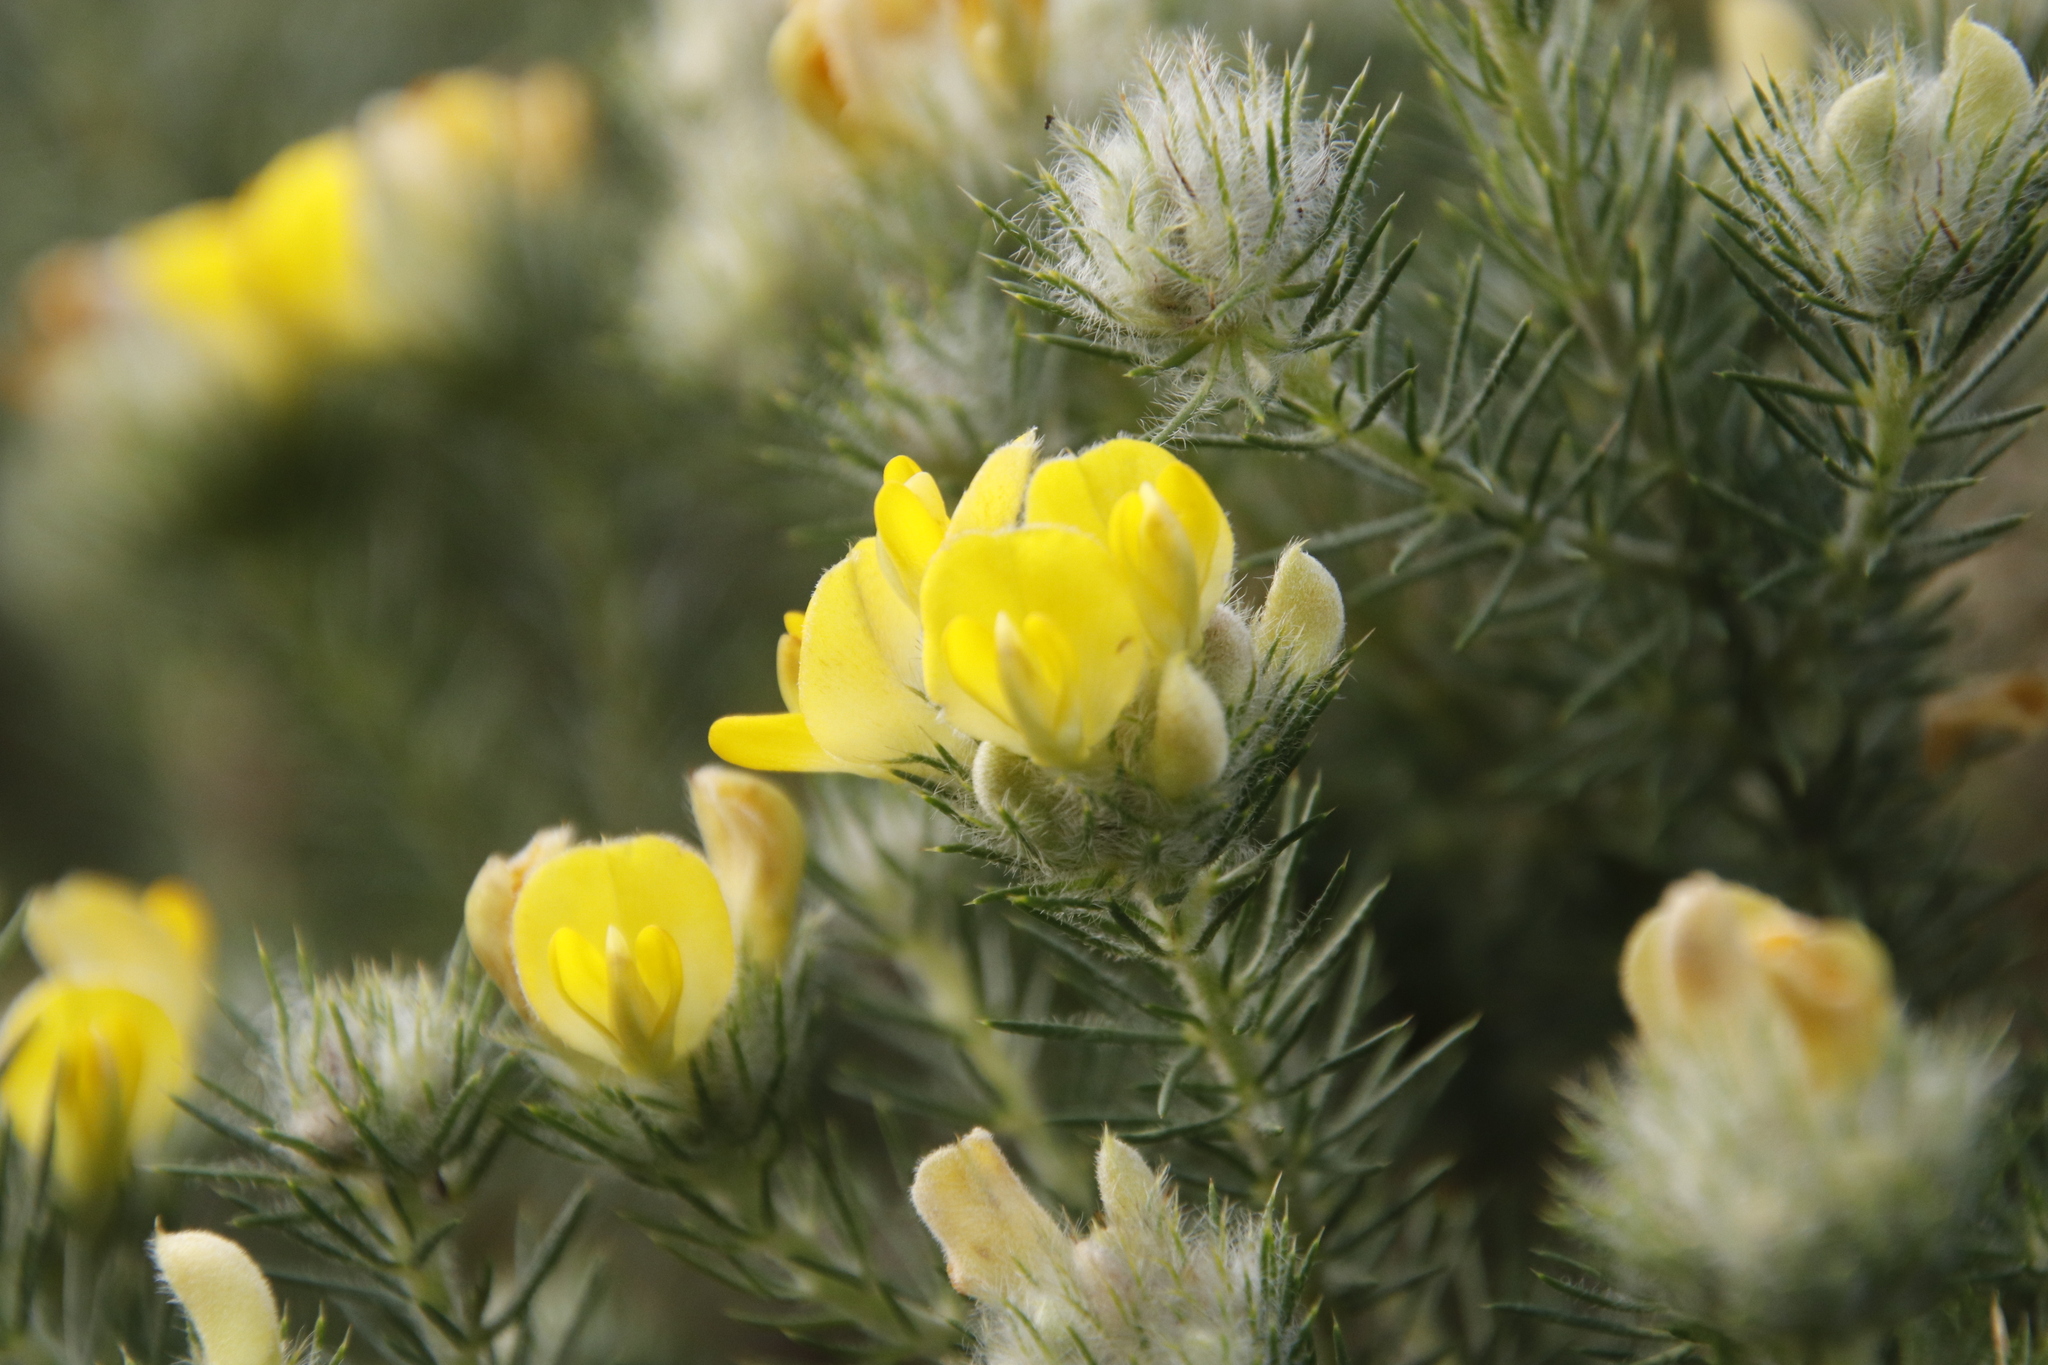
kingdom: Plantae
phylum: Tracheophyta
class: Magnoliopsida
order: Fabales
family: Fabaceae
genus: Aspalathus
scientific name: Aspalathus chenopoda
